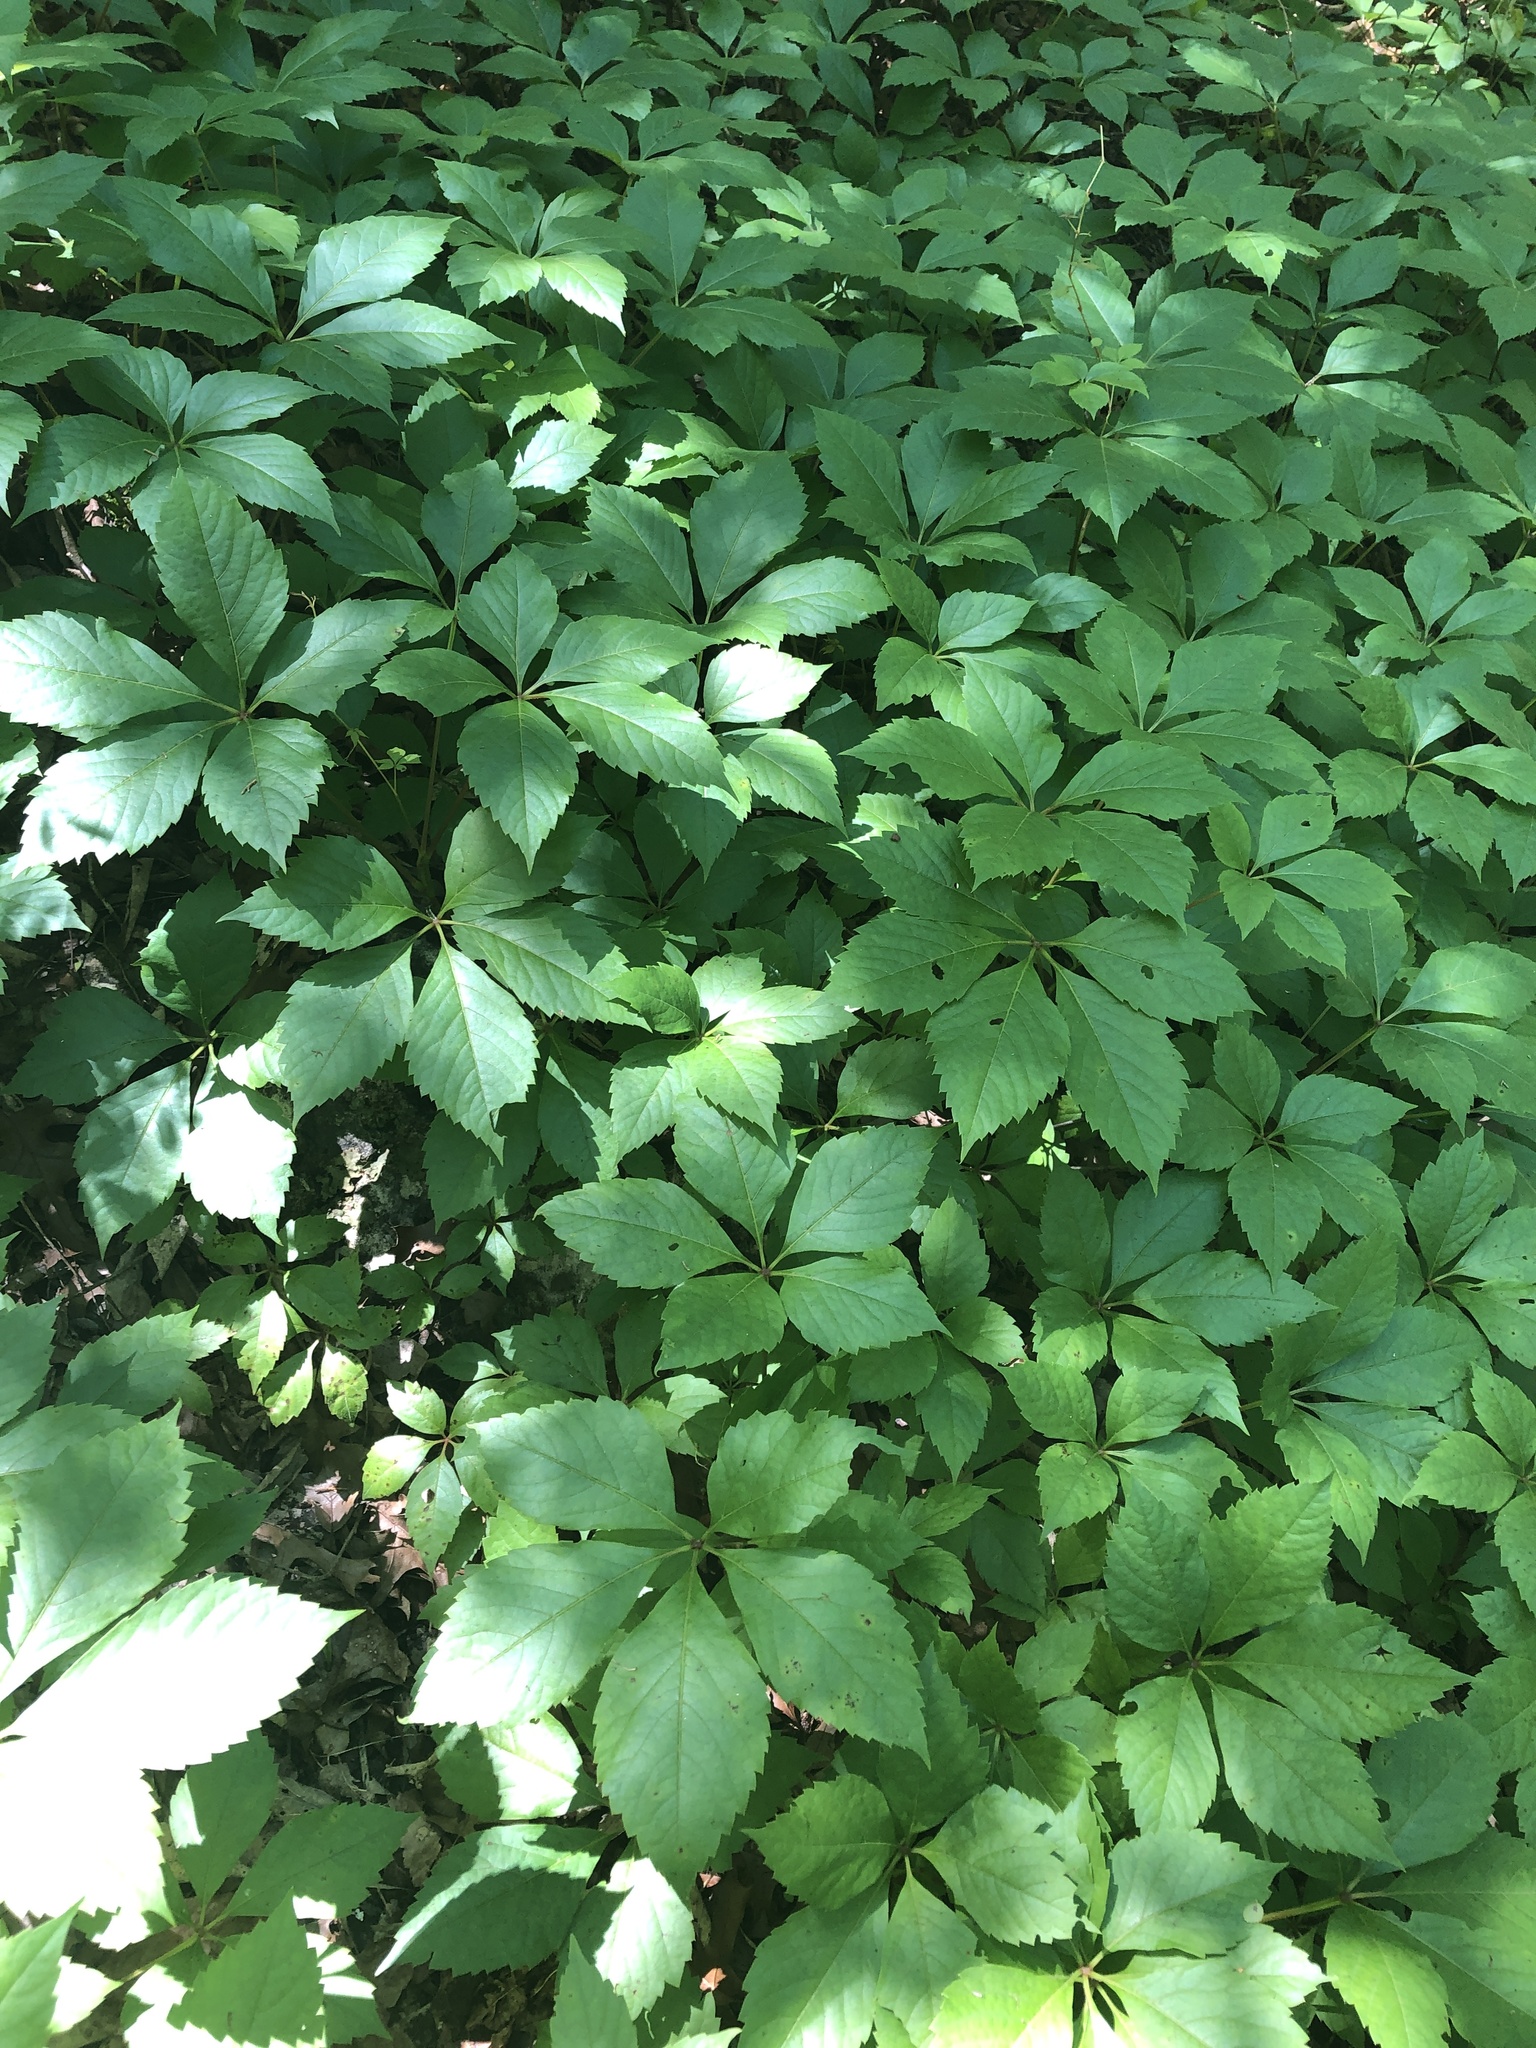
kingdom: Plantae
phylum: Tracheophyta
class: Magnoliopsida
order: Vitales
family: Vitaceae
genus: Parthenocissus
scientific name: Parthenocissus quinquefolia
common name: Virginia-creeper
